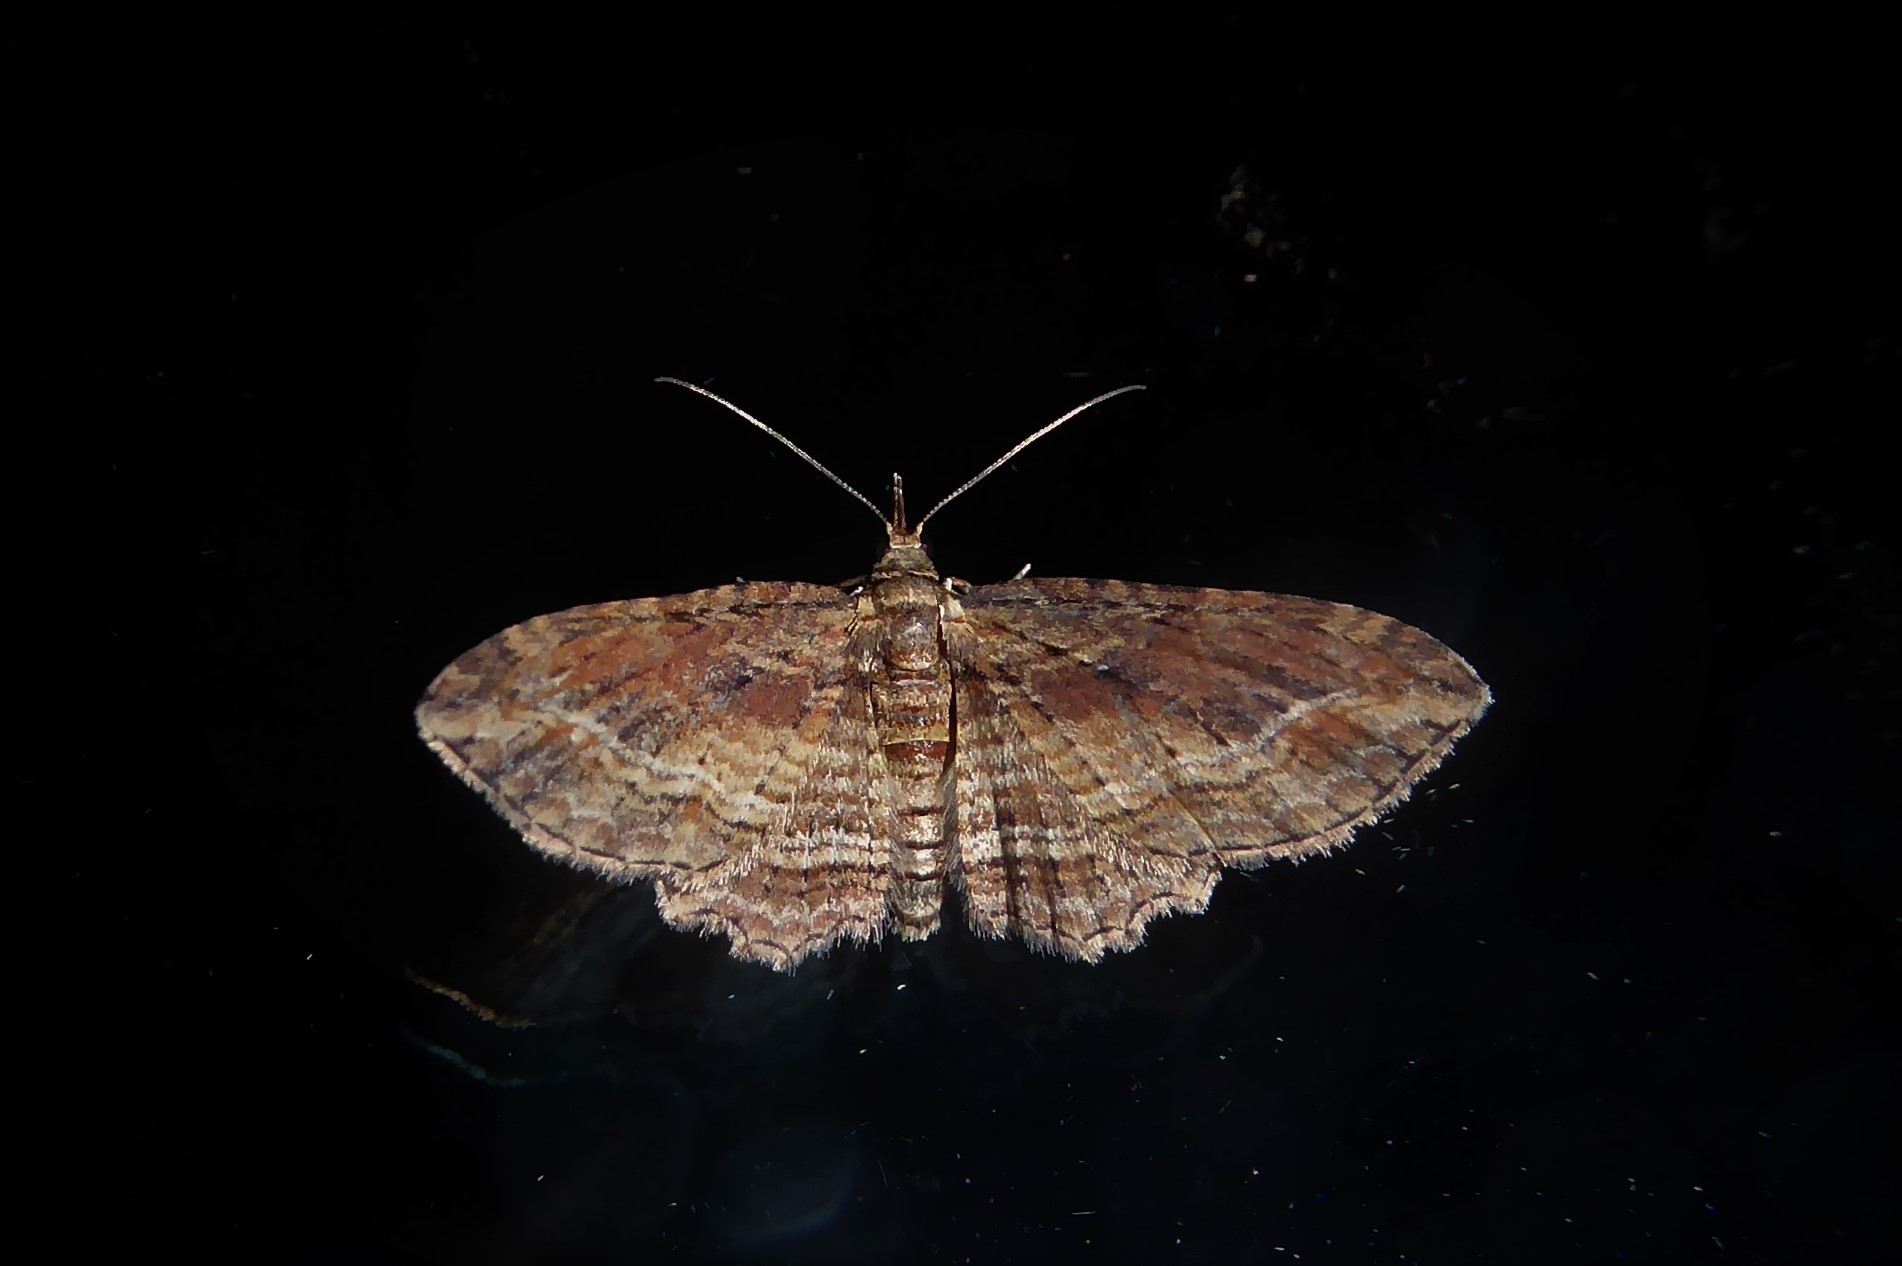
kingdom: Animalia
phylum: Arthropoda
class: Insecta
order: Lepidoptera
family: Geometridae
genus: Chloroclystis
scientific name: Chloroclystis filata
